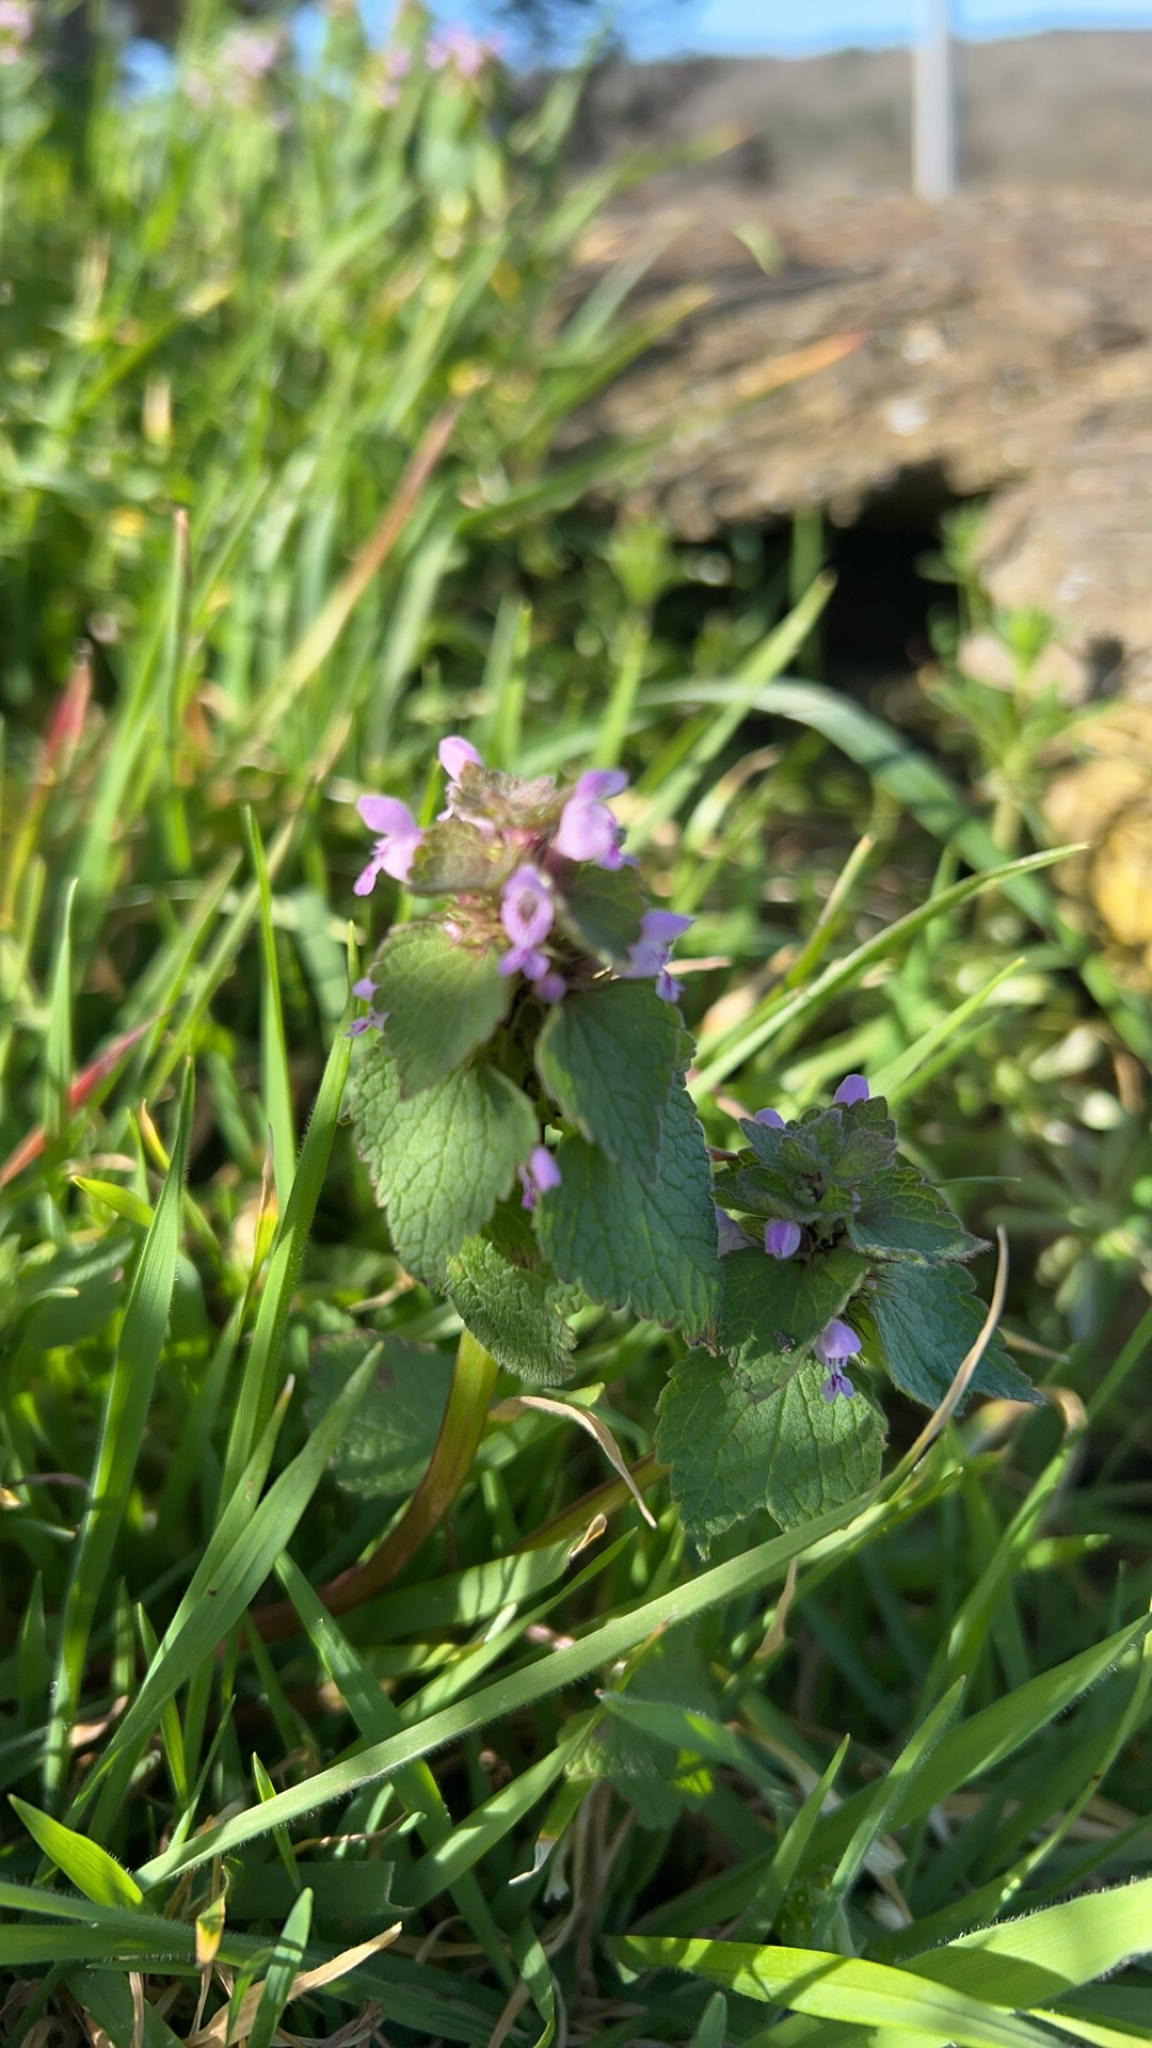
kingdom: Plantae
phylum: Tracheophyta
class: Magnoliopsida
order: Lamiales
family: Lamiaceae
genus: Lamium
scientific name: Lamium purpureum
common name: Red dead-nettle
